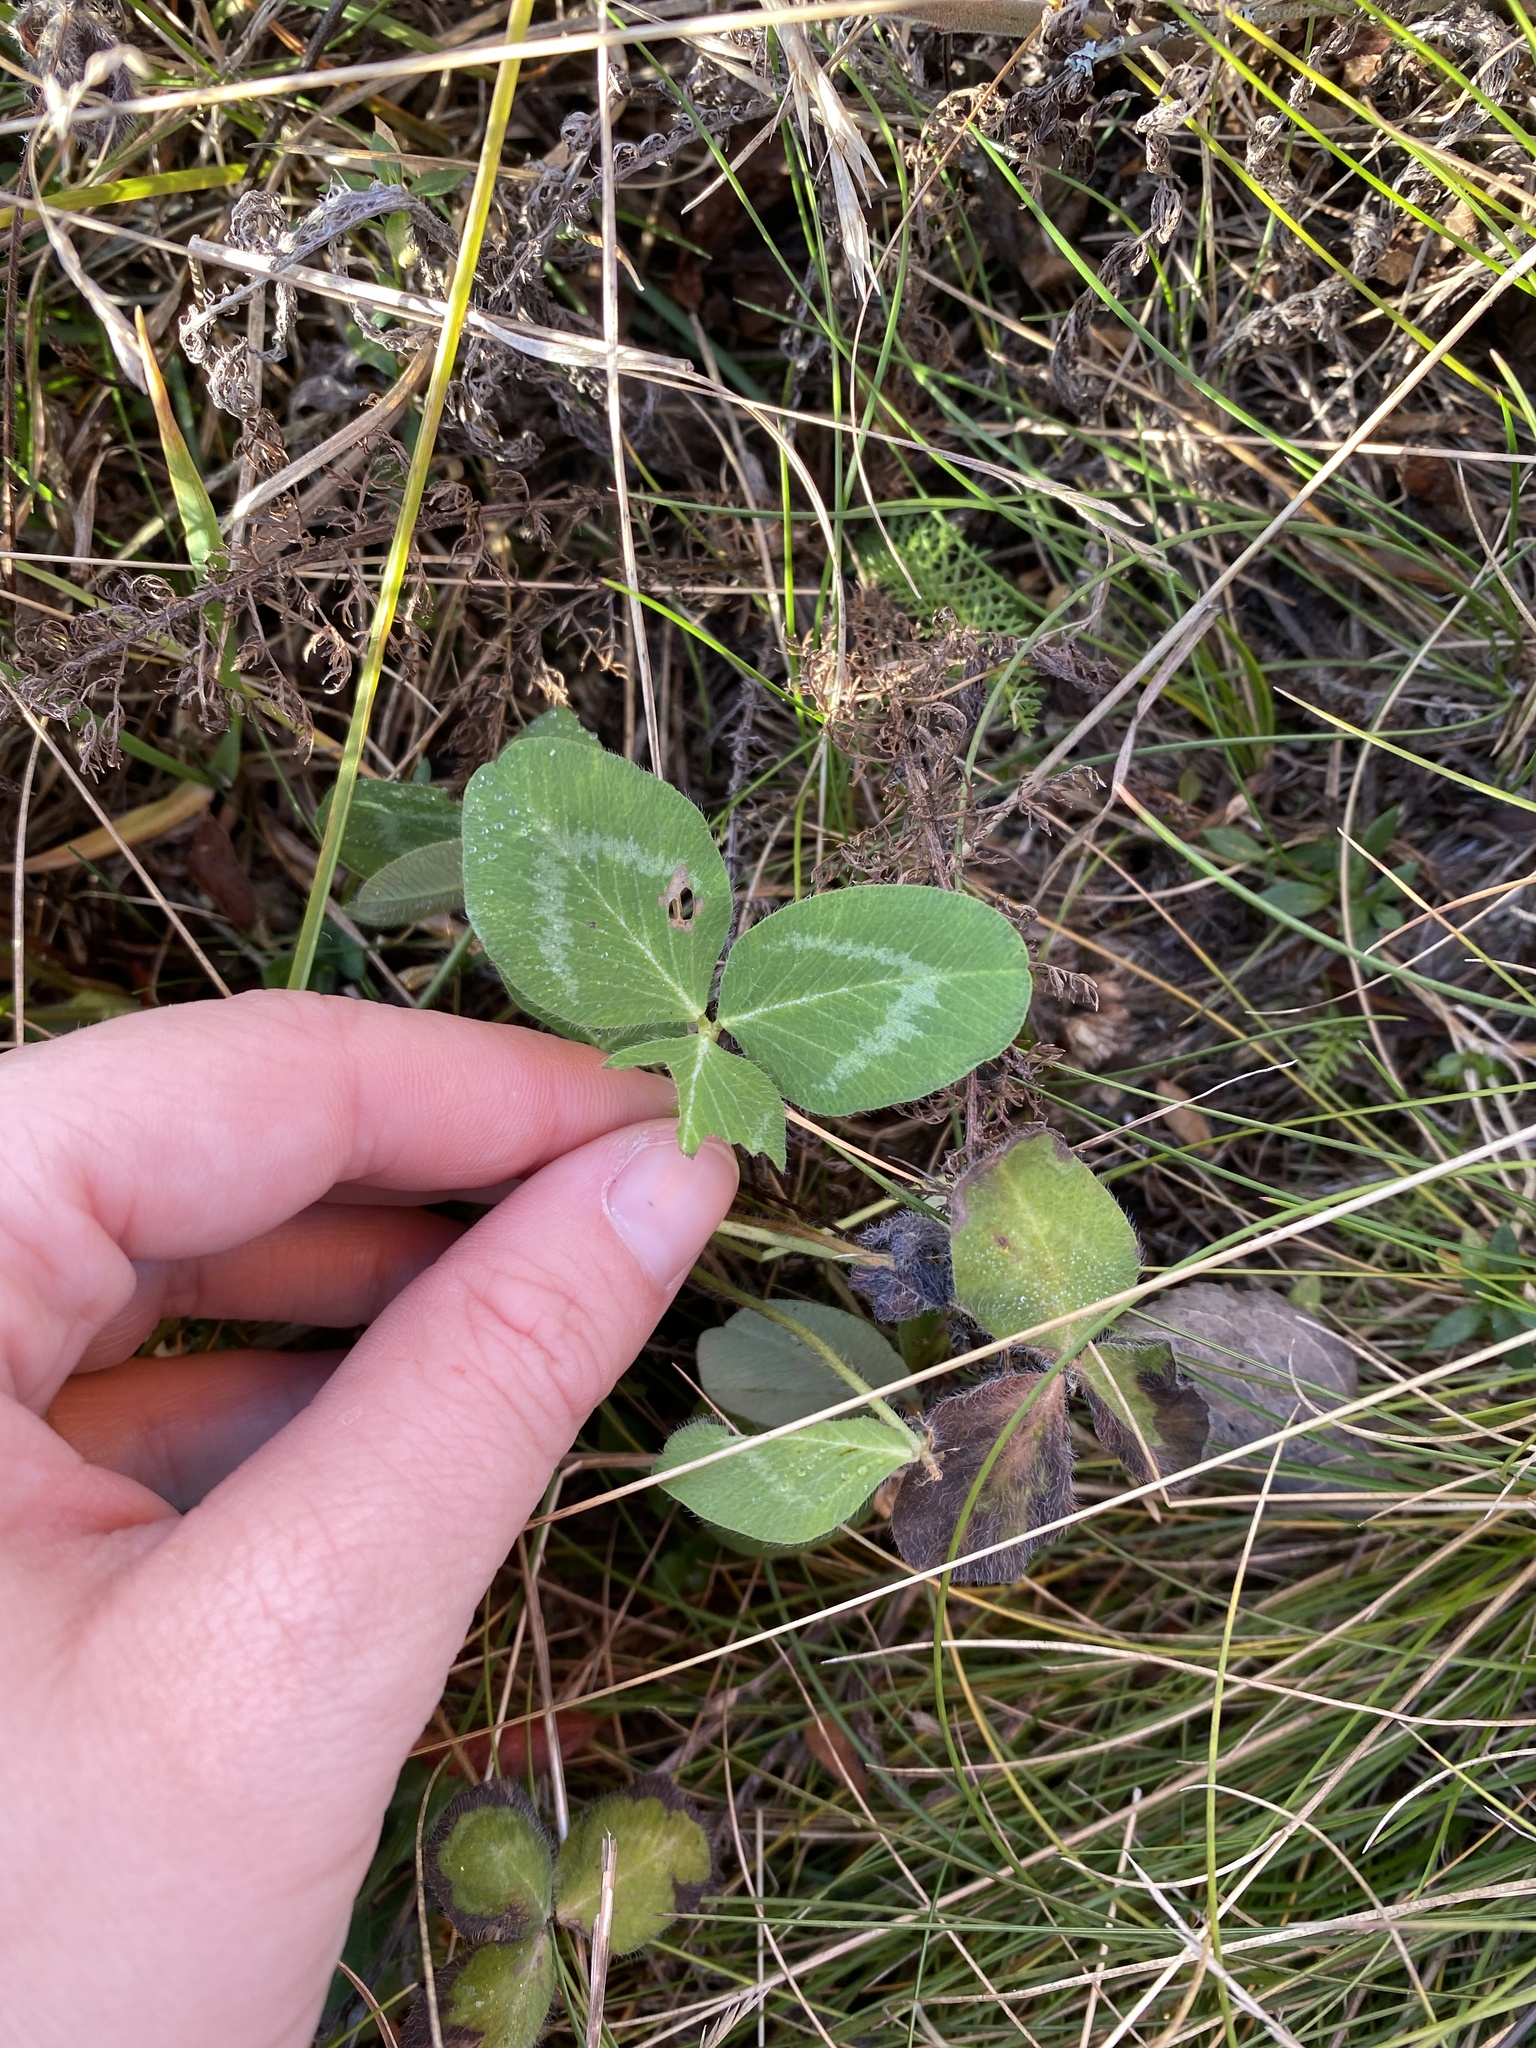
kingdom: Plantae
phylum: Tracheophyta
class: Magnoliopsida
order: Fabales
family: Fabaceae
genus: Trifolium
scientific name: Trifolium pratense
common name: Red clover
